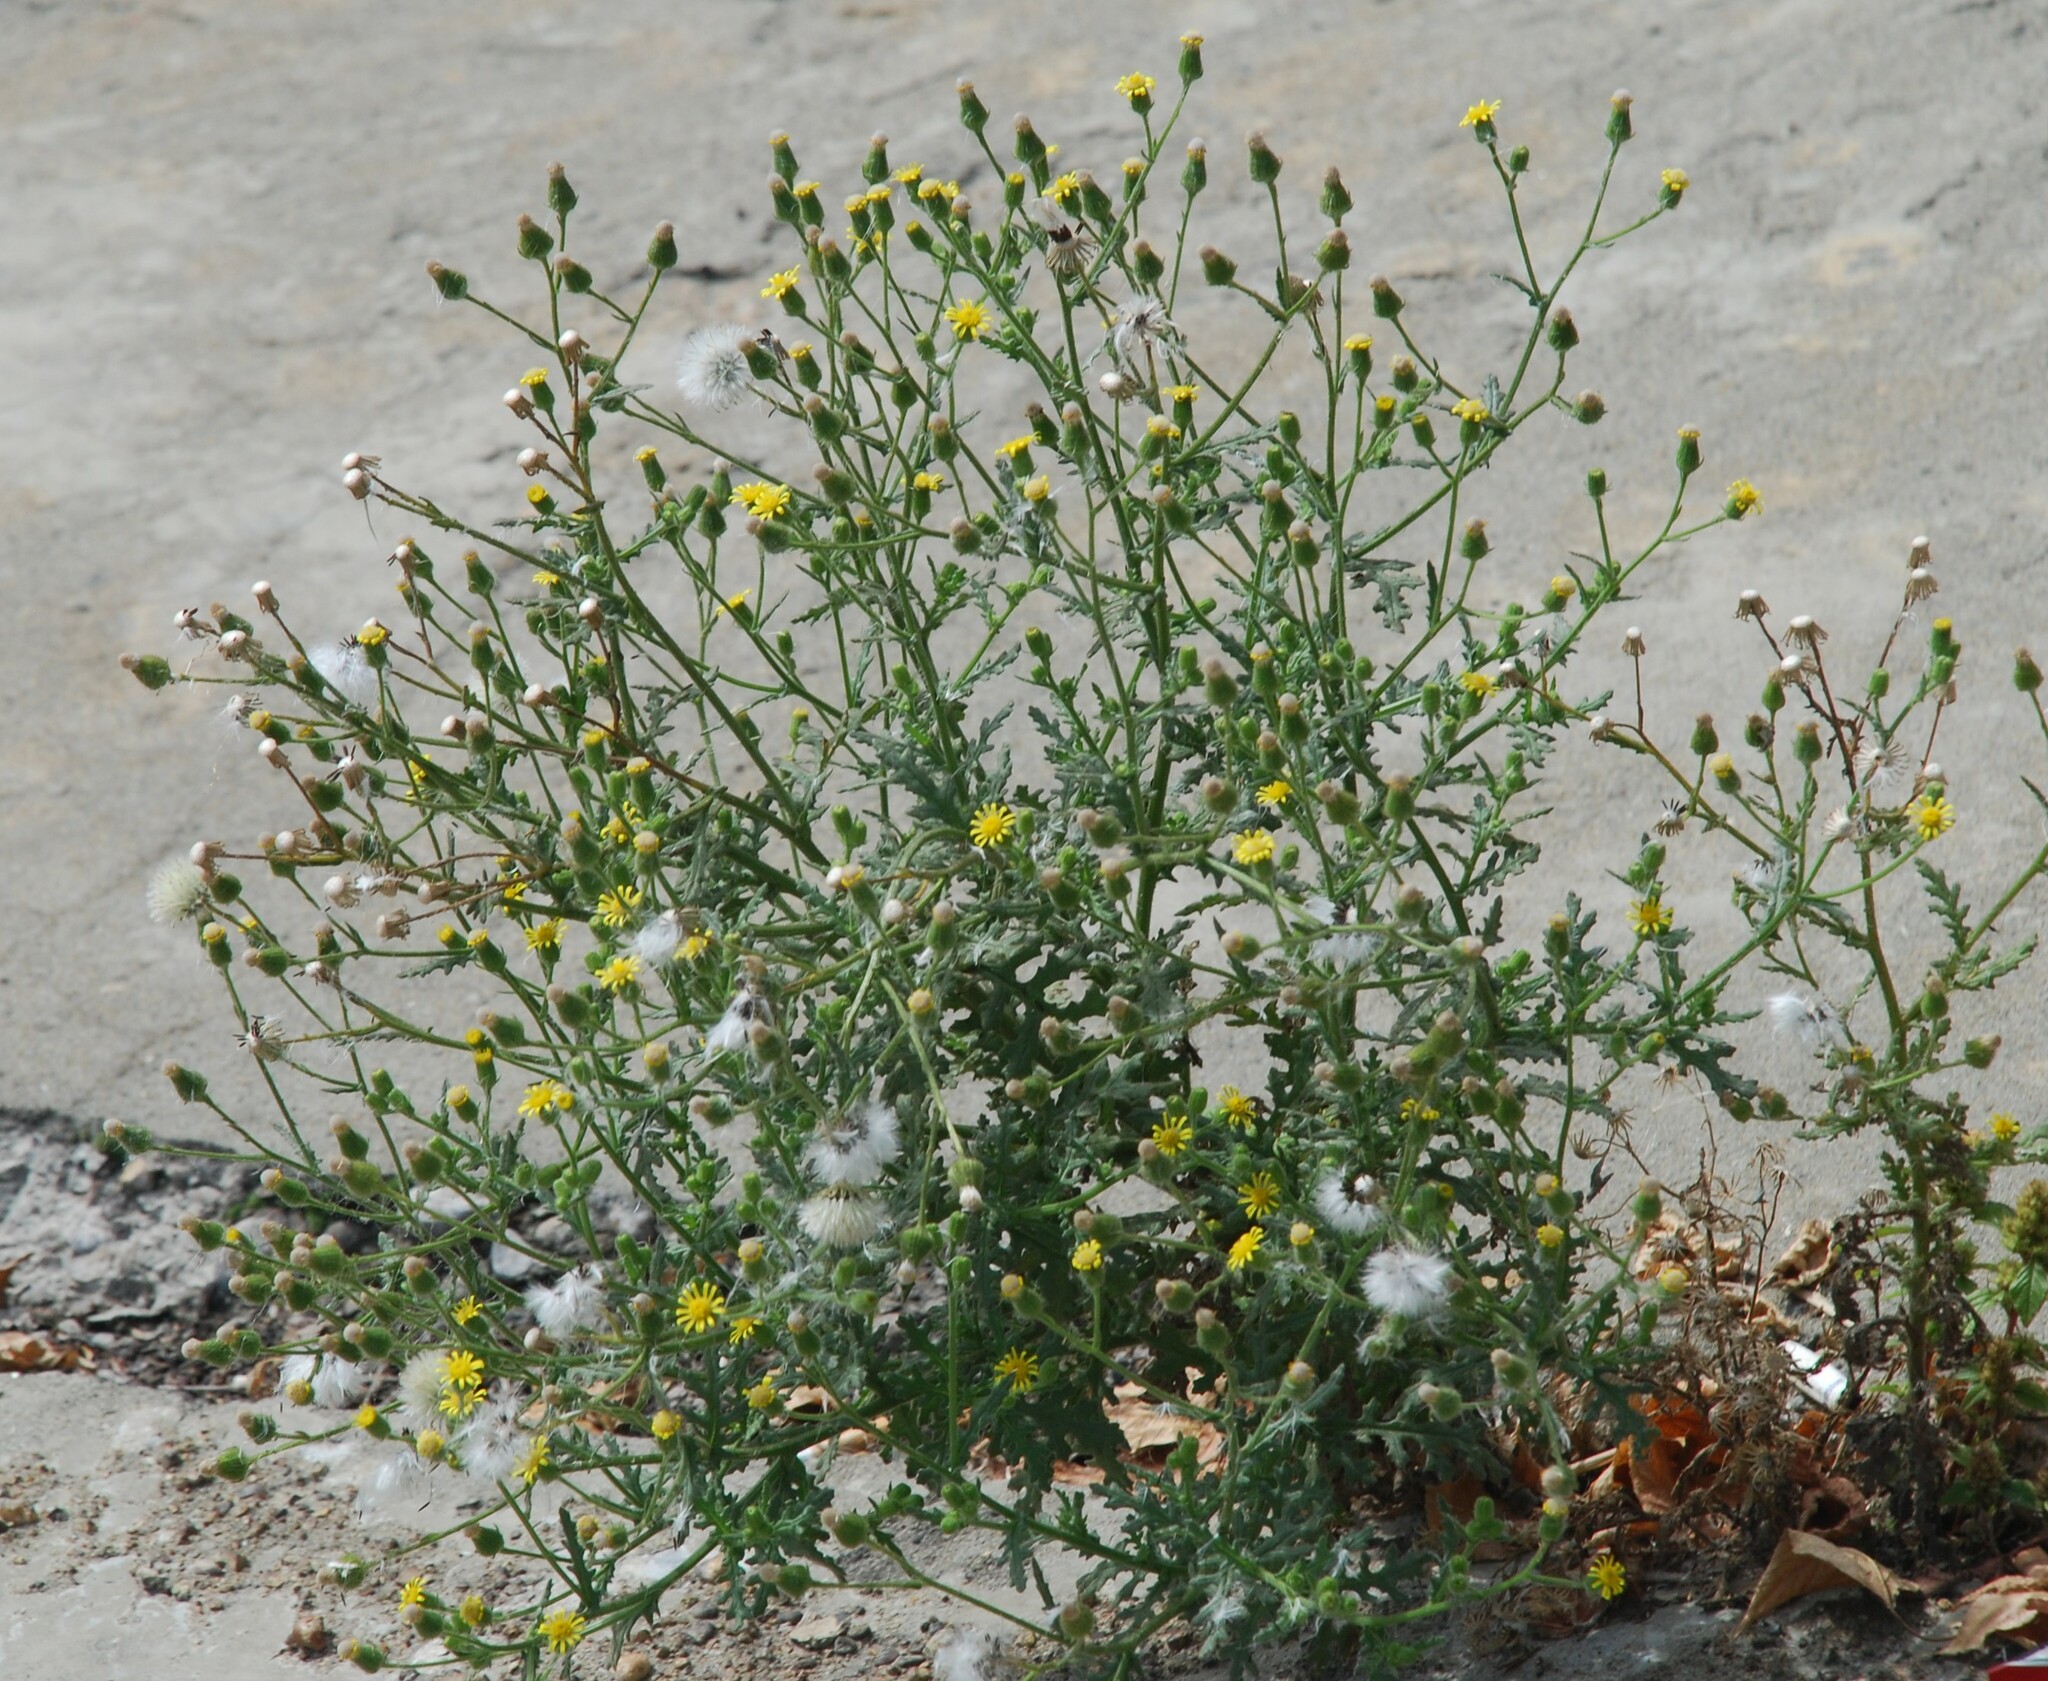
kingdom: Plantae
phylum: Tracheophyta
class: Magnoliopsida
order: Asterales
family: Asteraceae
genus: Senecio
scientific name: Senecio viscosus
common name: Sticky groundsel
